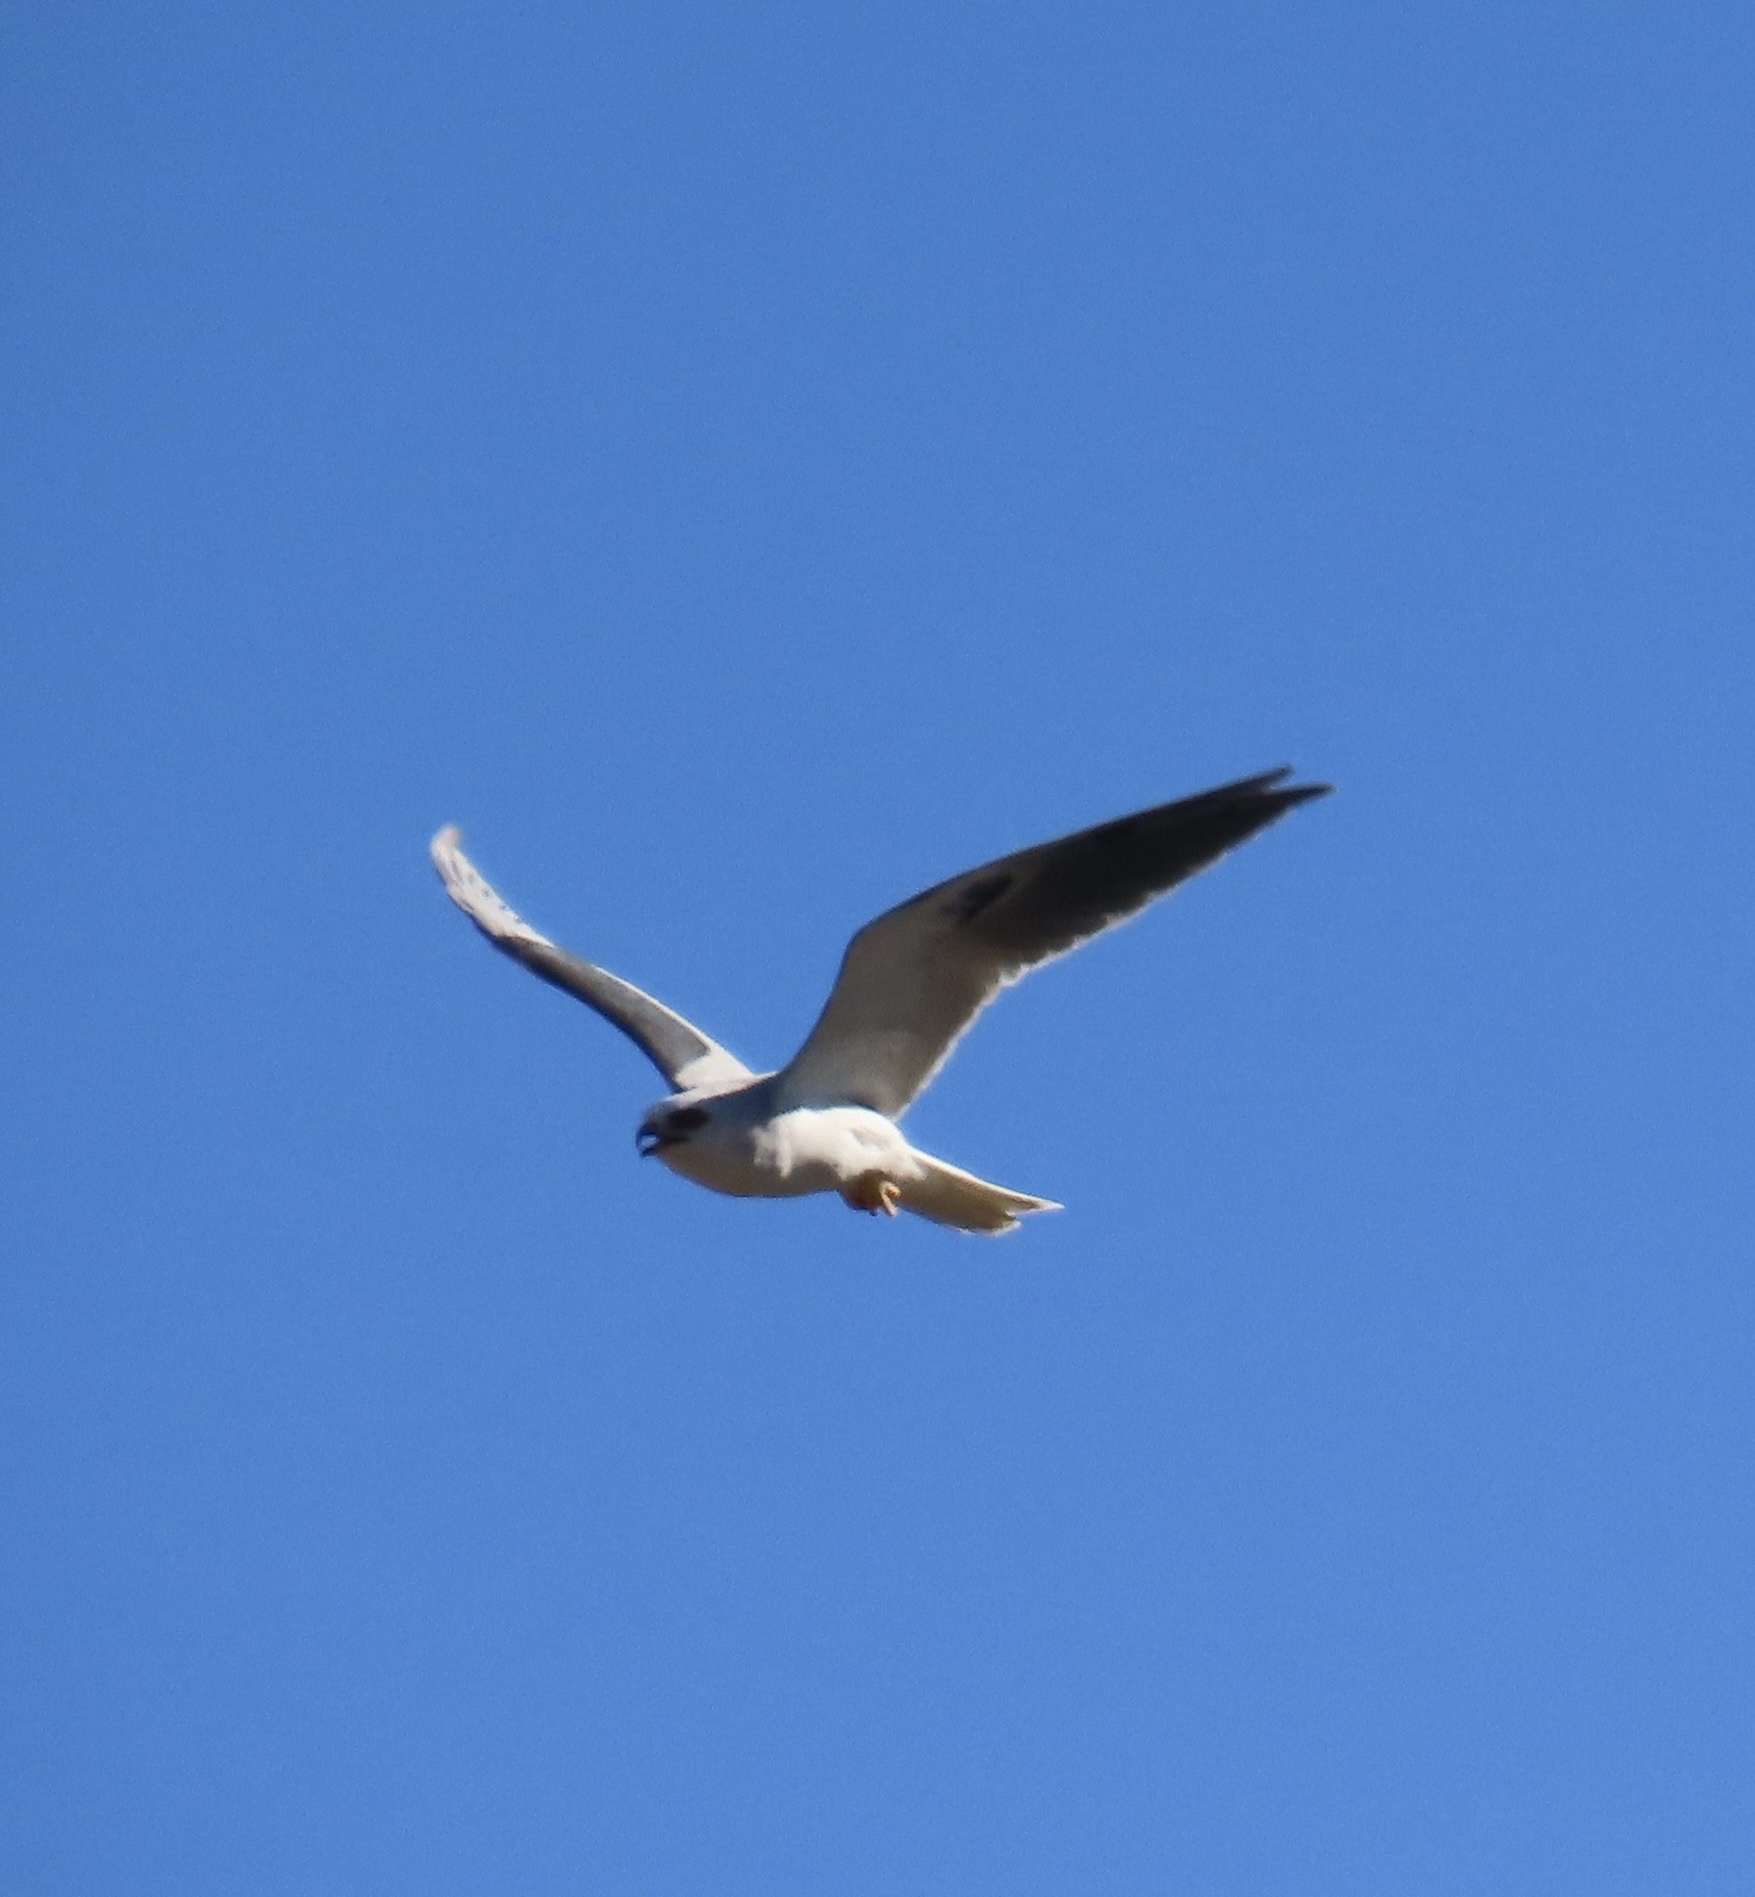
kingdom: Animalia
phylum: Chordata
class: Aves
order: Accipitriformes
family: Accipitridae
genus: Elanus
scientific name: Elanus leucurus
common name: White-tailed kite
